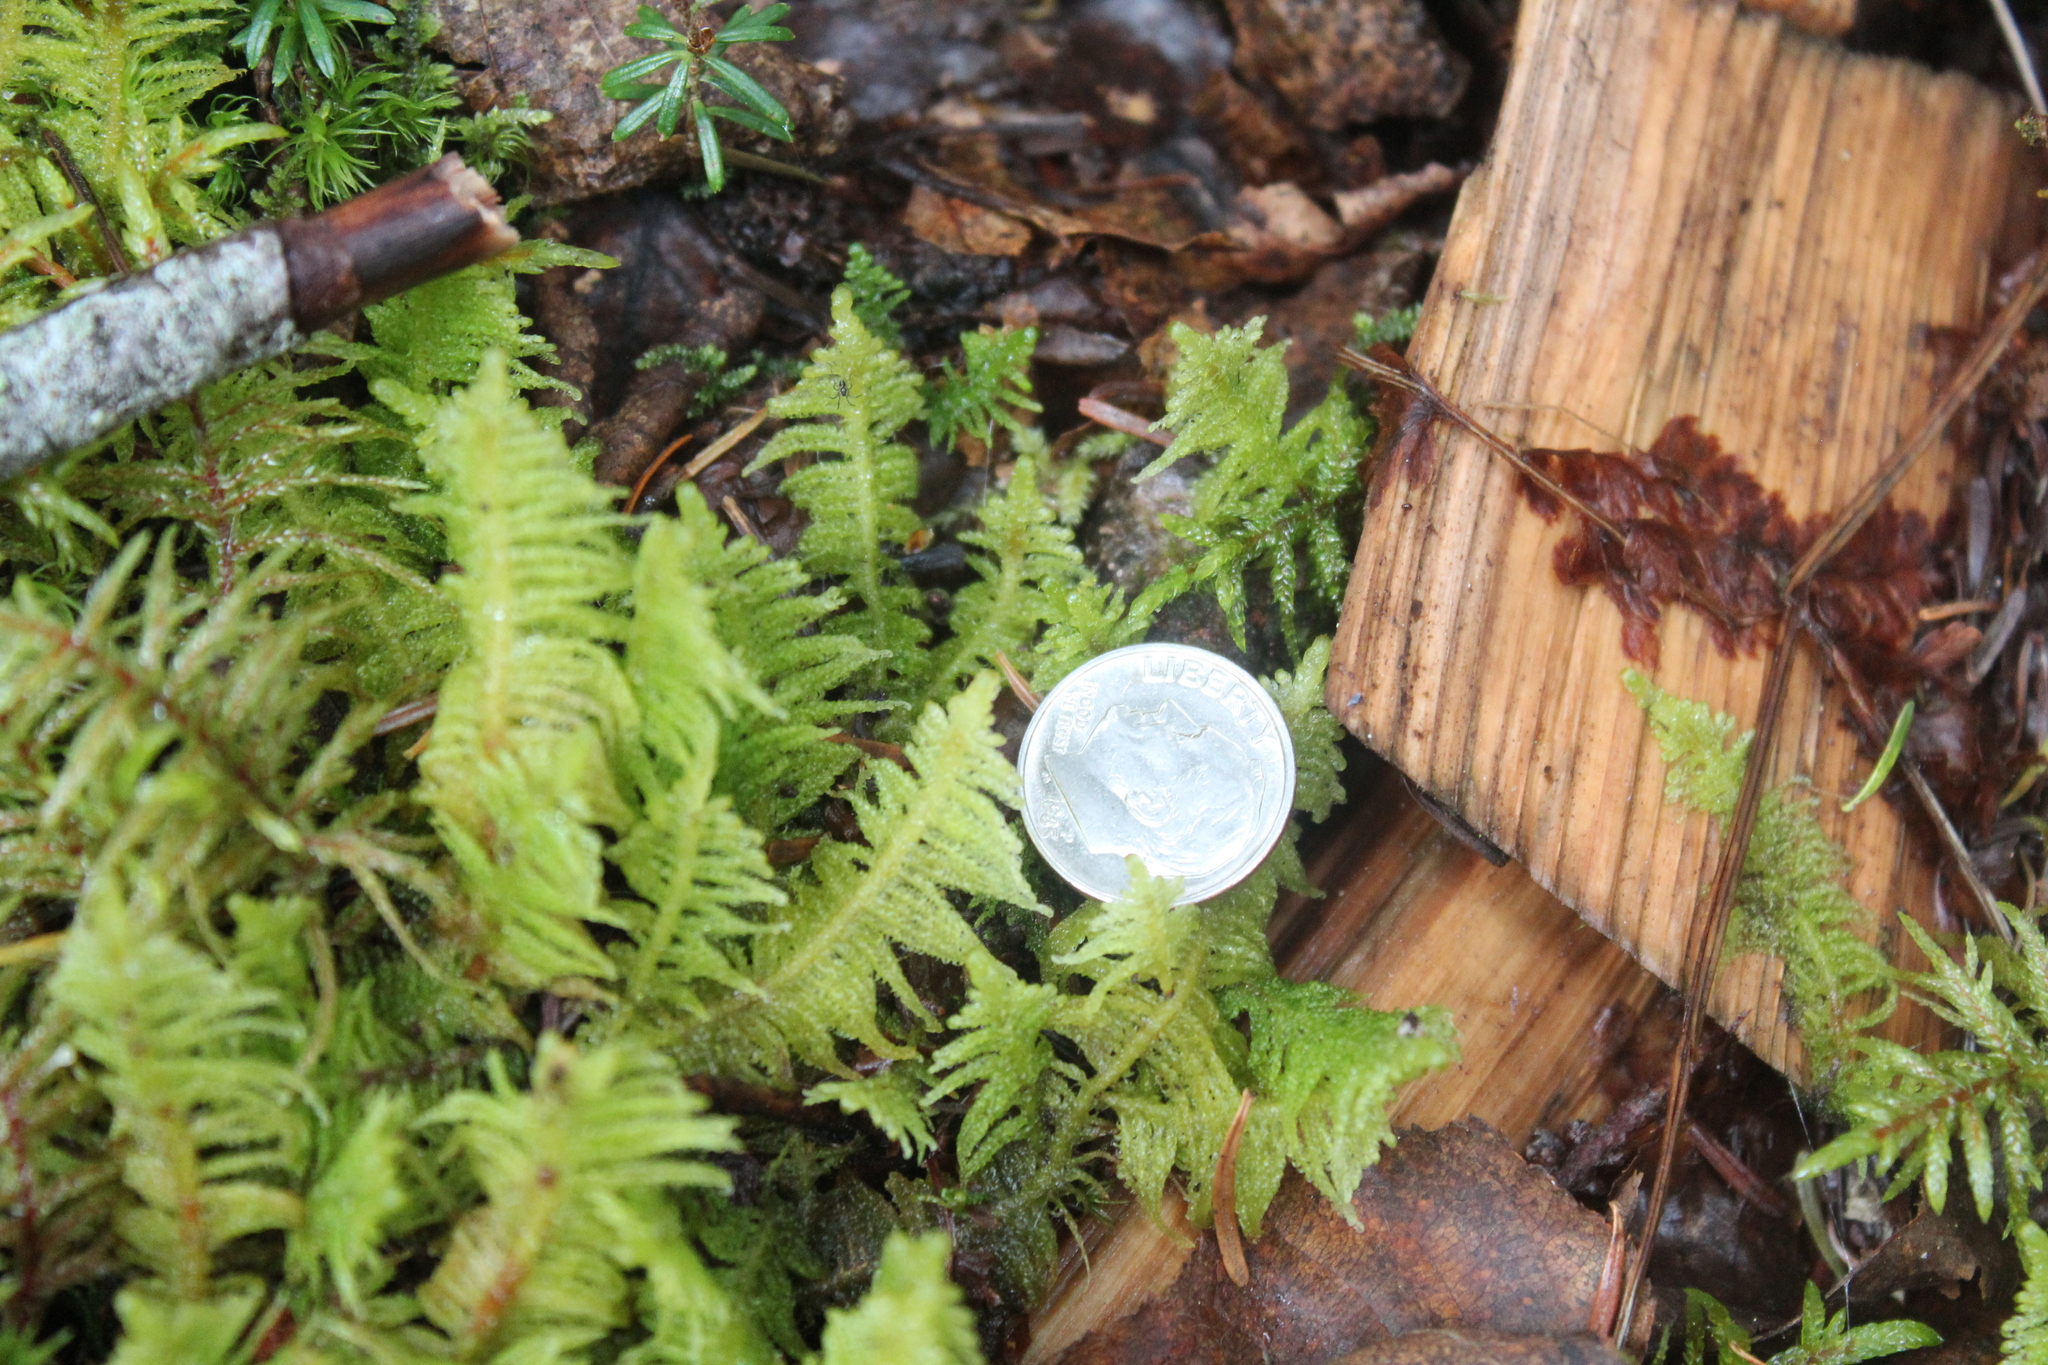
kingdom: Plantae
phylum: Bryophyta
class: Bryopsida
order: Hypnales
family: Pylaisiaceae
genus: Ptilium
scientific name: Ptilium crista-castrensis
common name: Knight's plume moss
